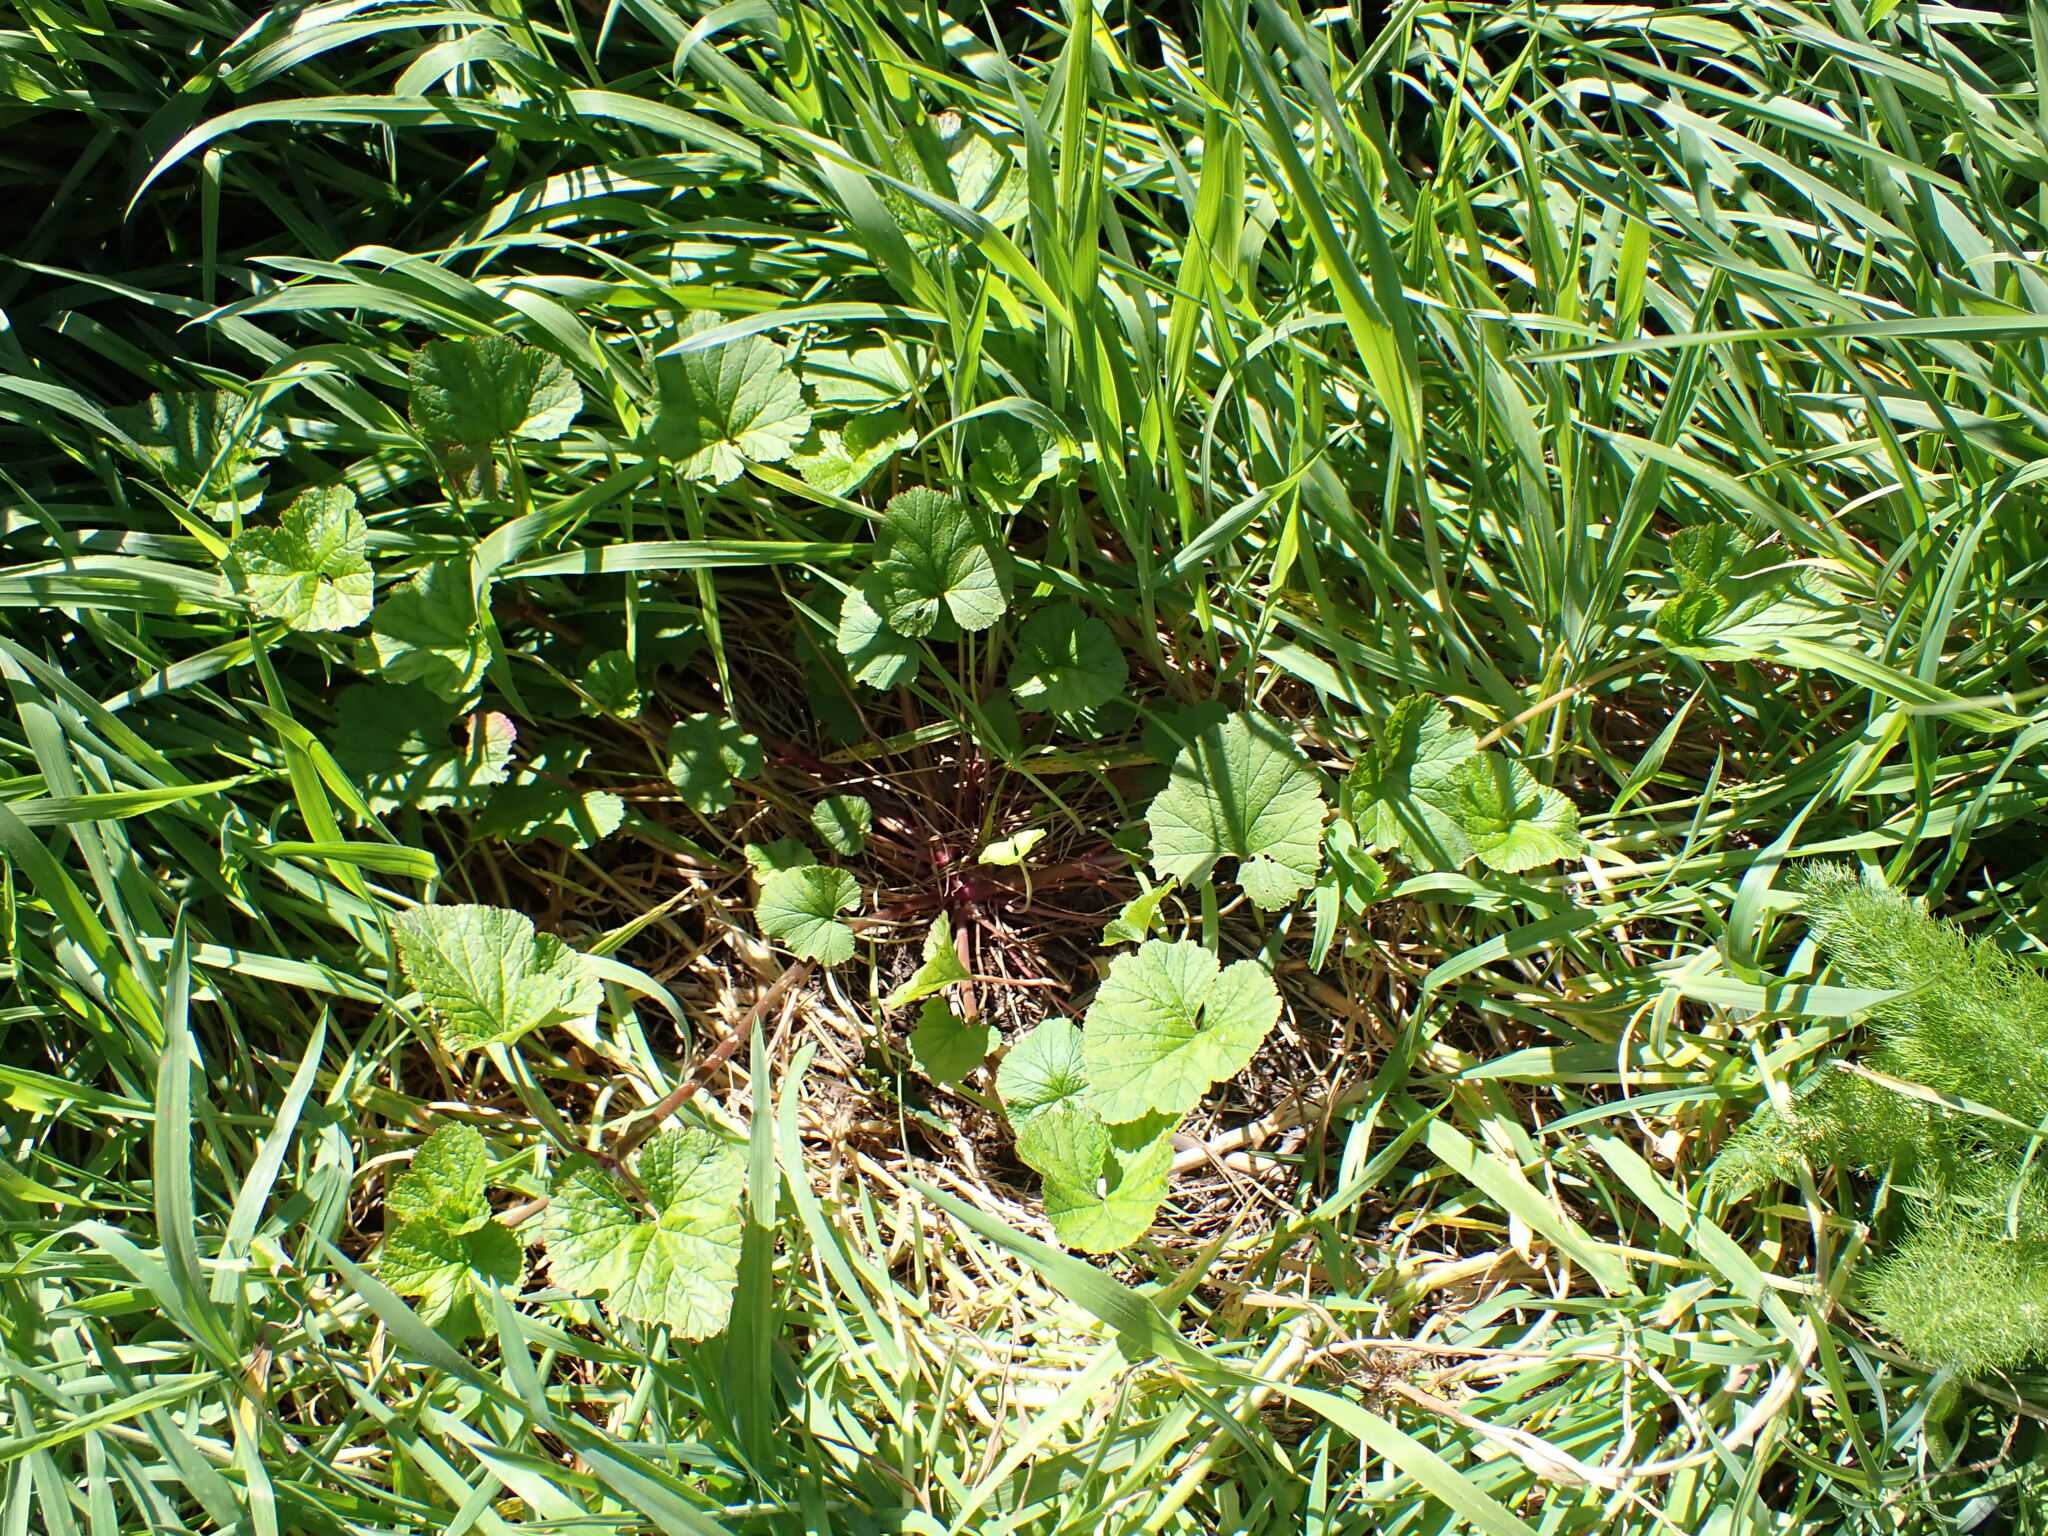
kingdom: Plantae
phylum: Tracheophyta
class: Magnoliopsida
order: Geraniales
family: Geraniaceae
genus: Pelargonium
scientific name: Pelargonium inodorum
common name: Kopata geranium
